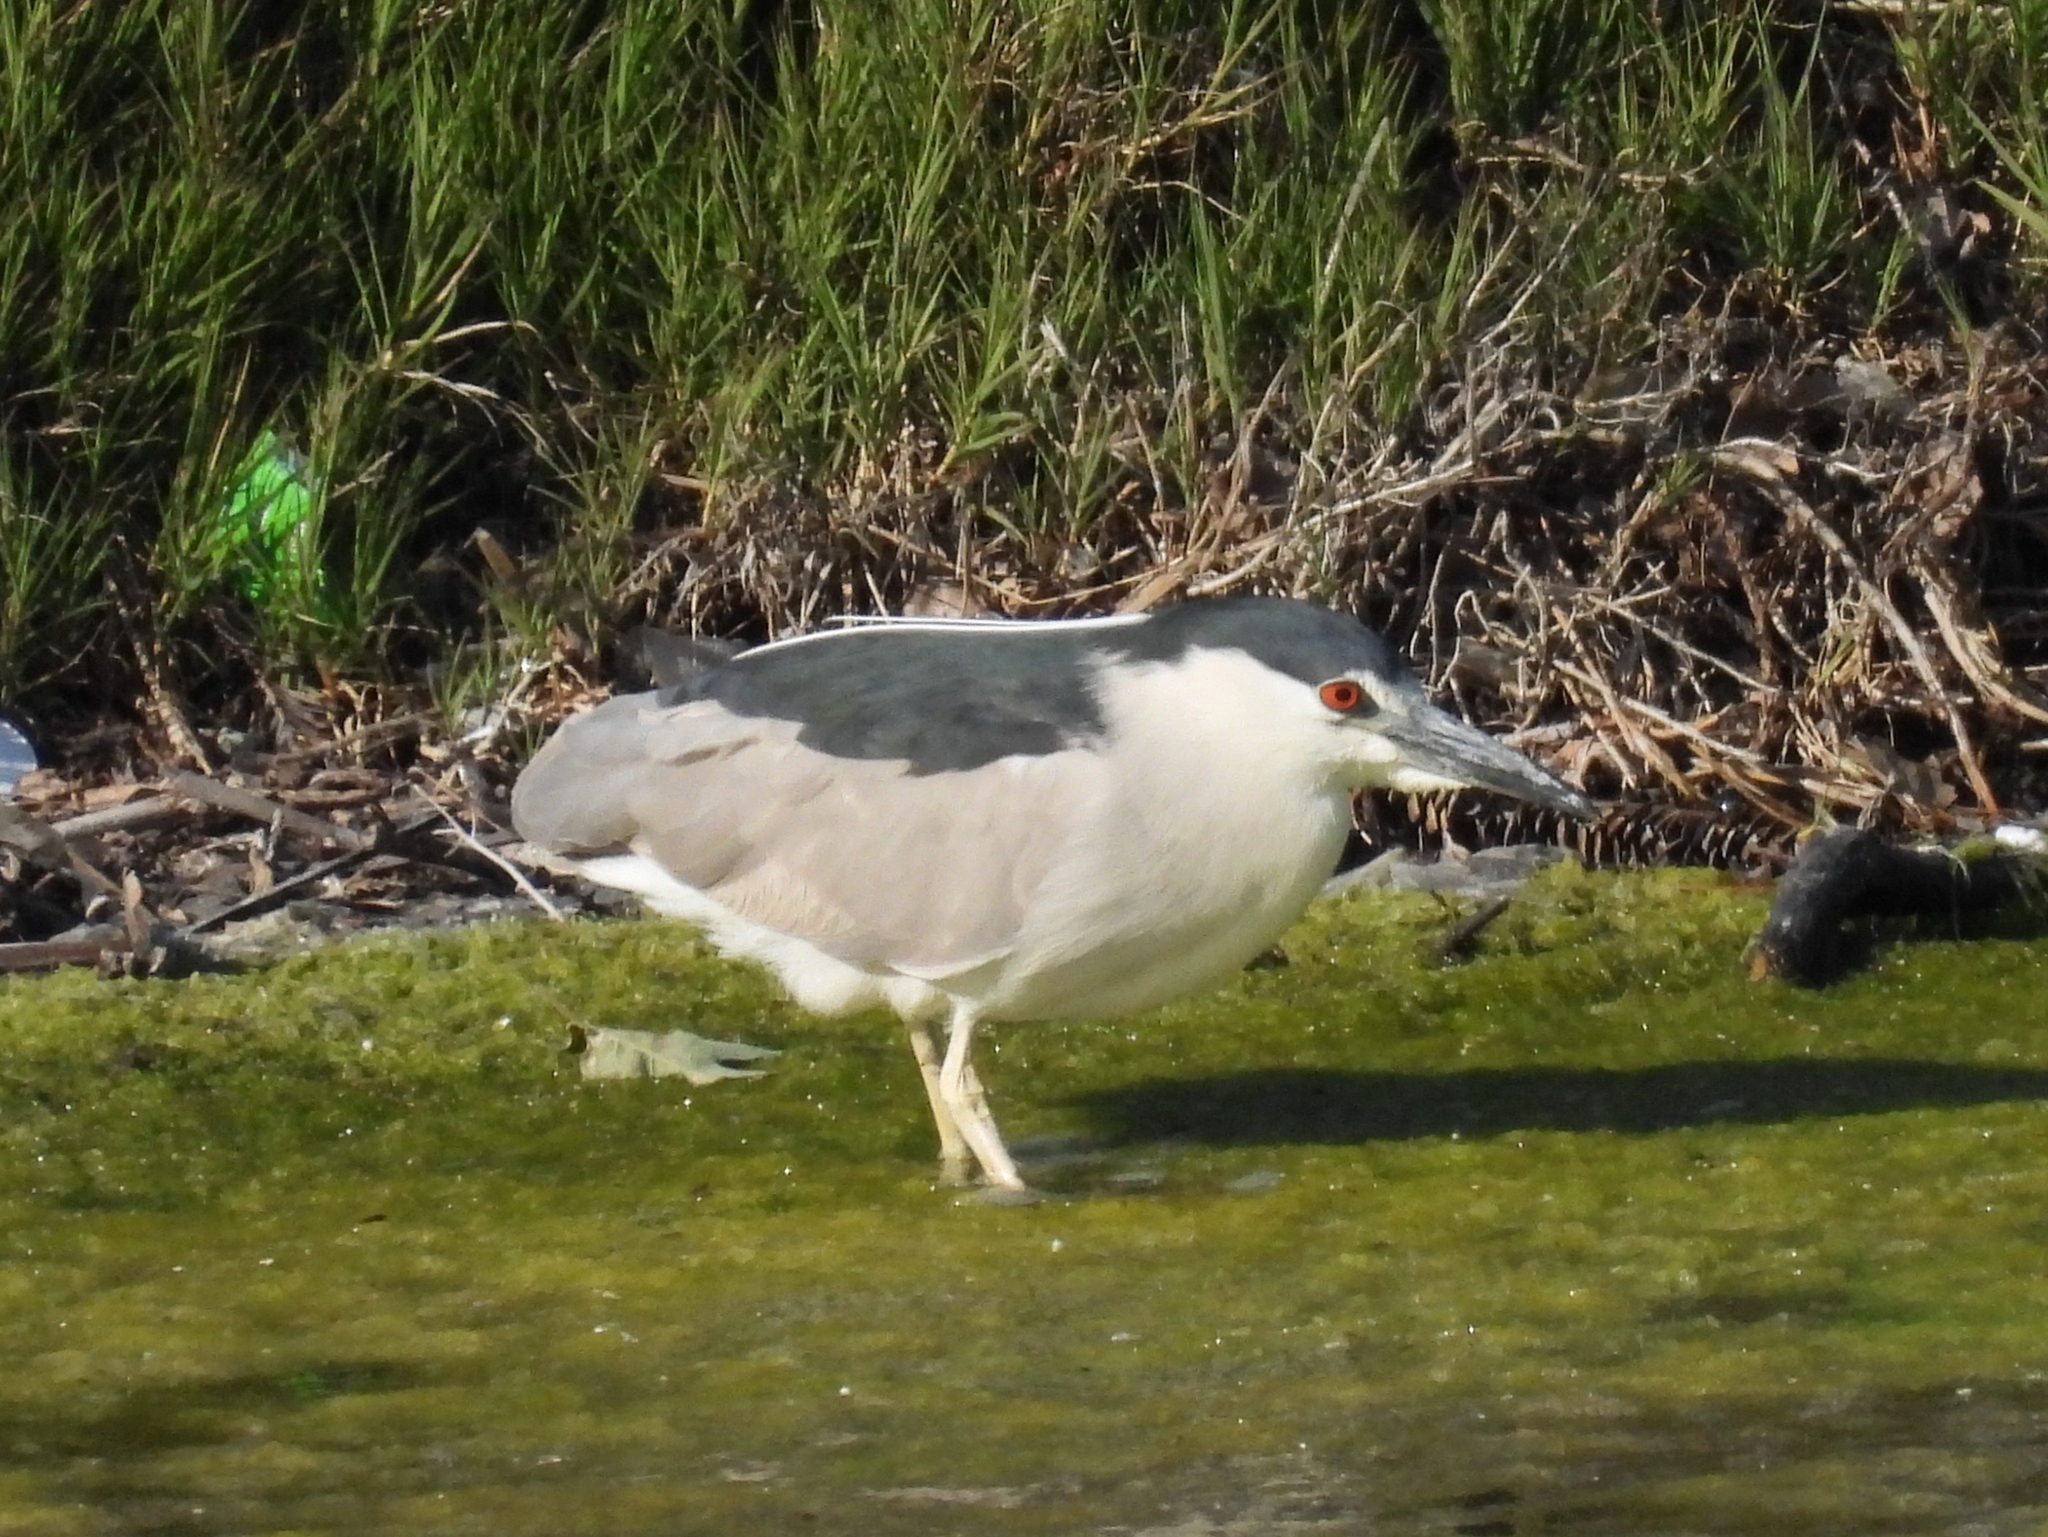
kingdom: Animalia
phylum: Chordata
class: Aves
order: Pelecaniformes
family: Ardeidae
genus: Nycticorax
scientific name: Nycticorax nycticorax
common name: Black-crowned night heron
